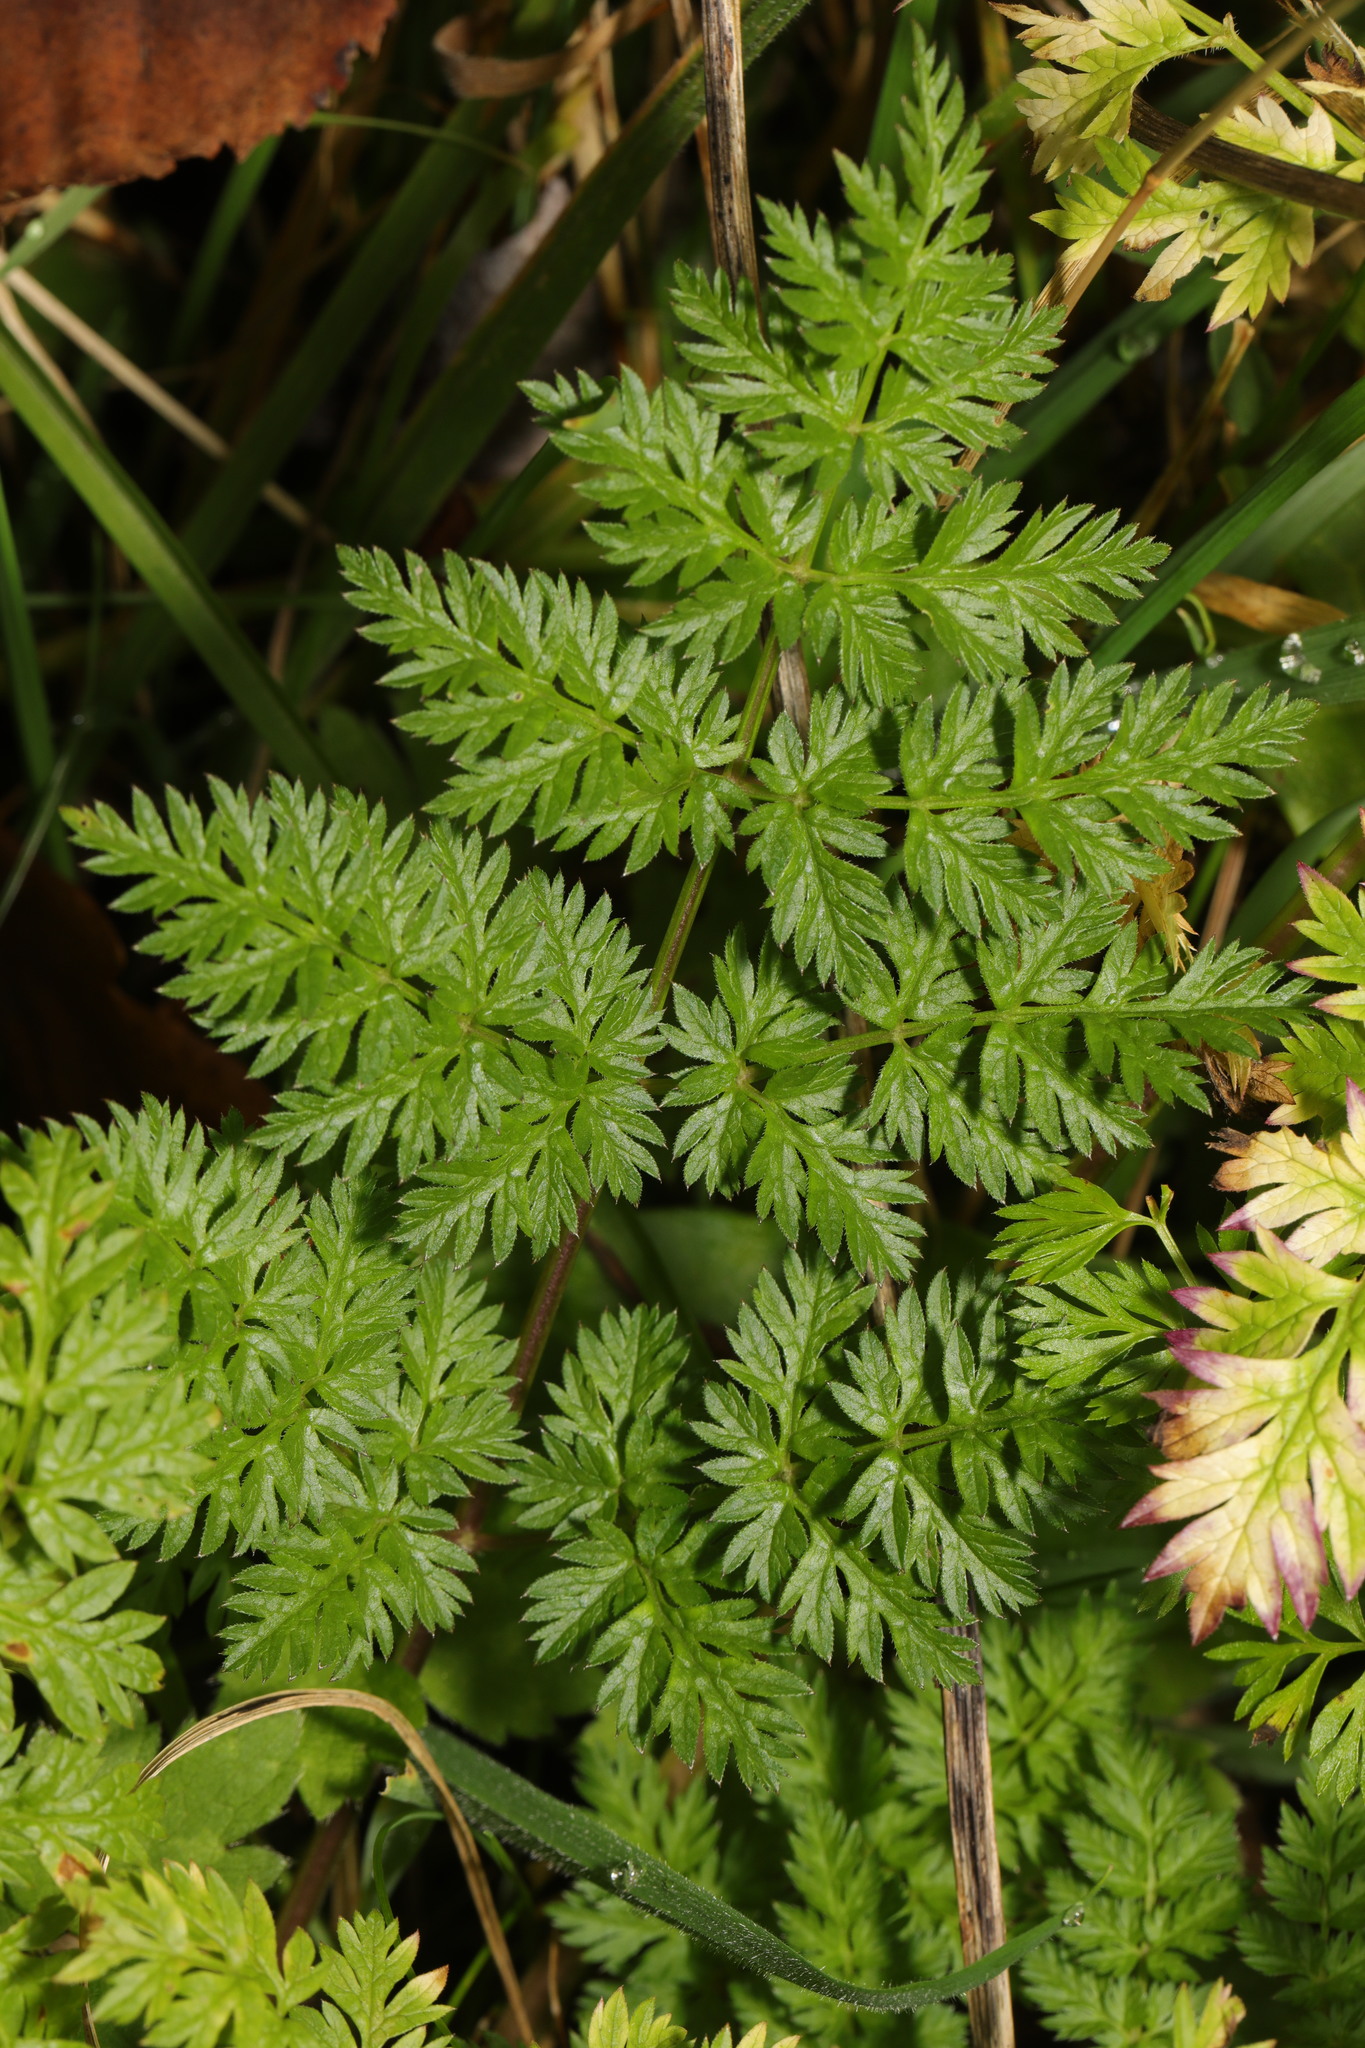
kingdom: Plantae
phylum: Tracheophyta
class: Magnoliopsida
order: Apiales
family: Apiaceae
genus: Anthriscus
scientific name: Anthriscus sylvestris
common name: Cow parsley
